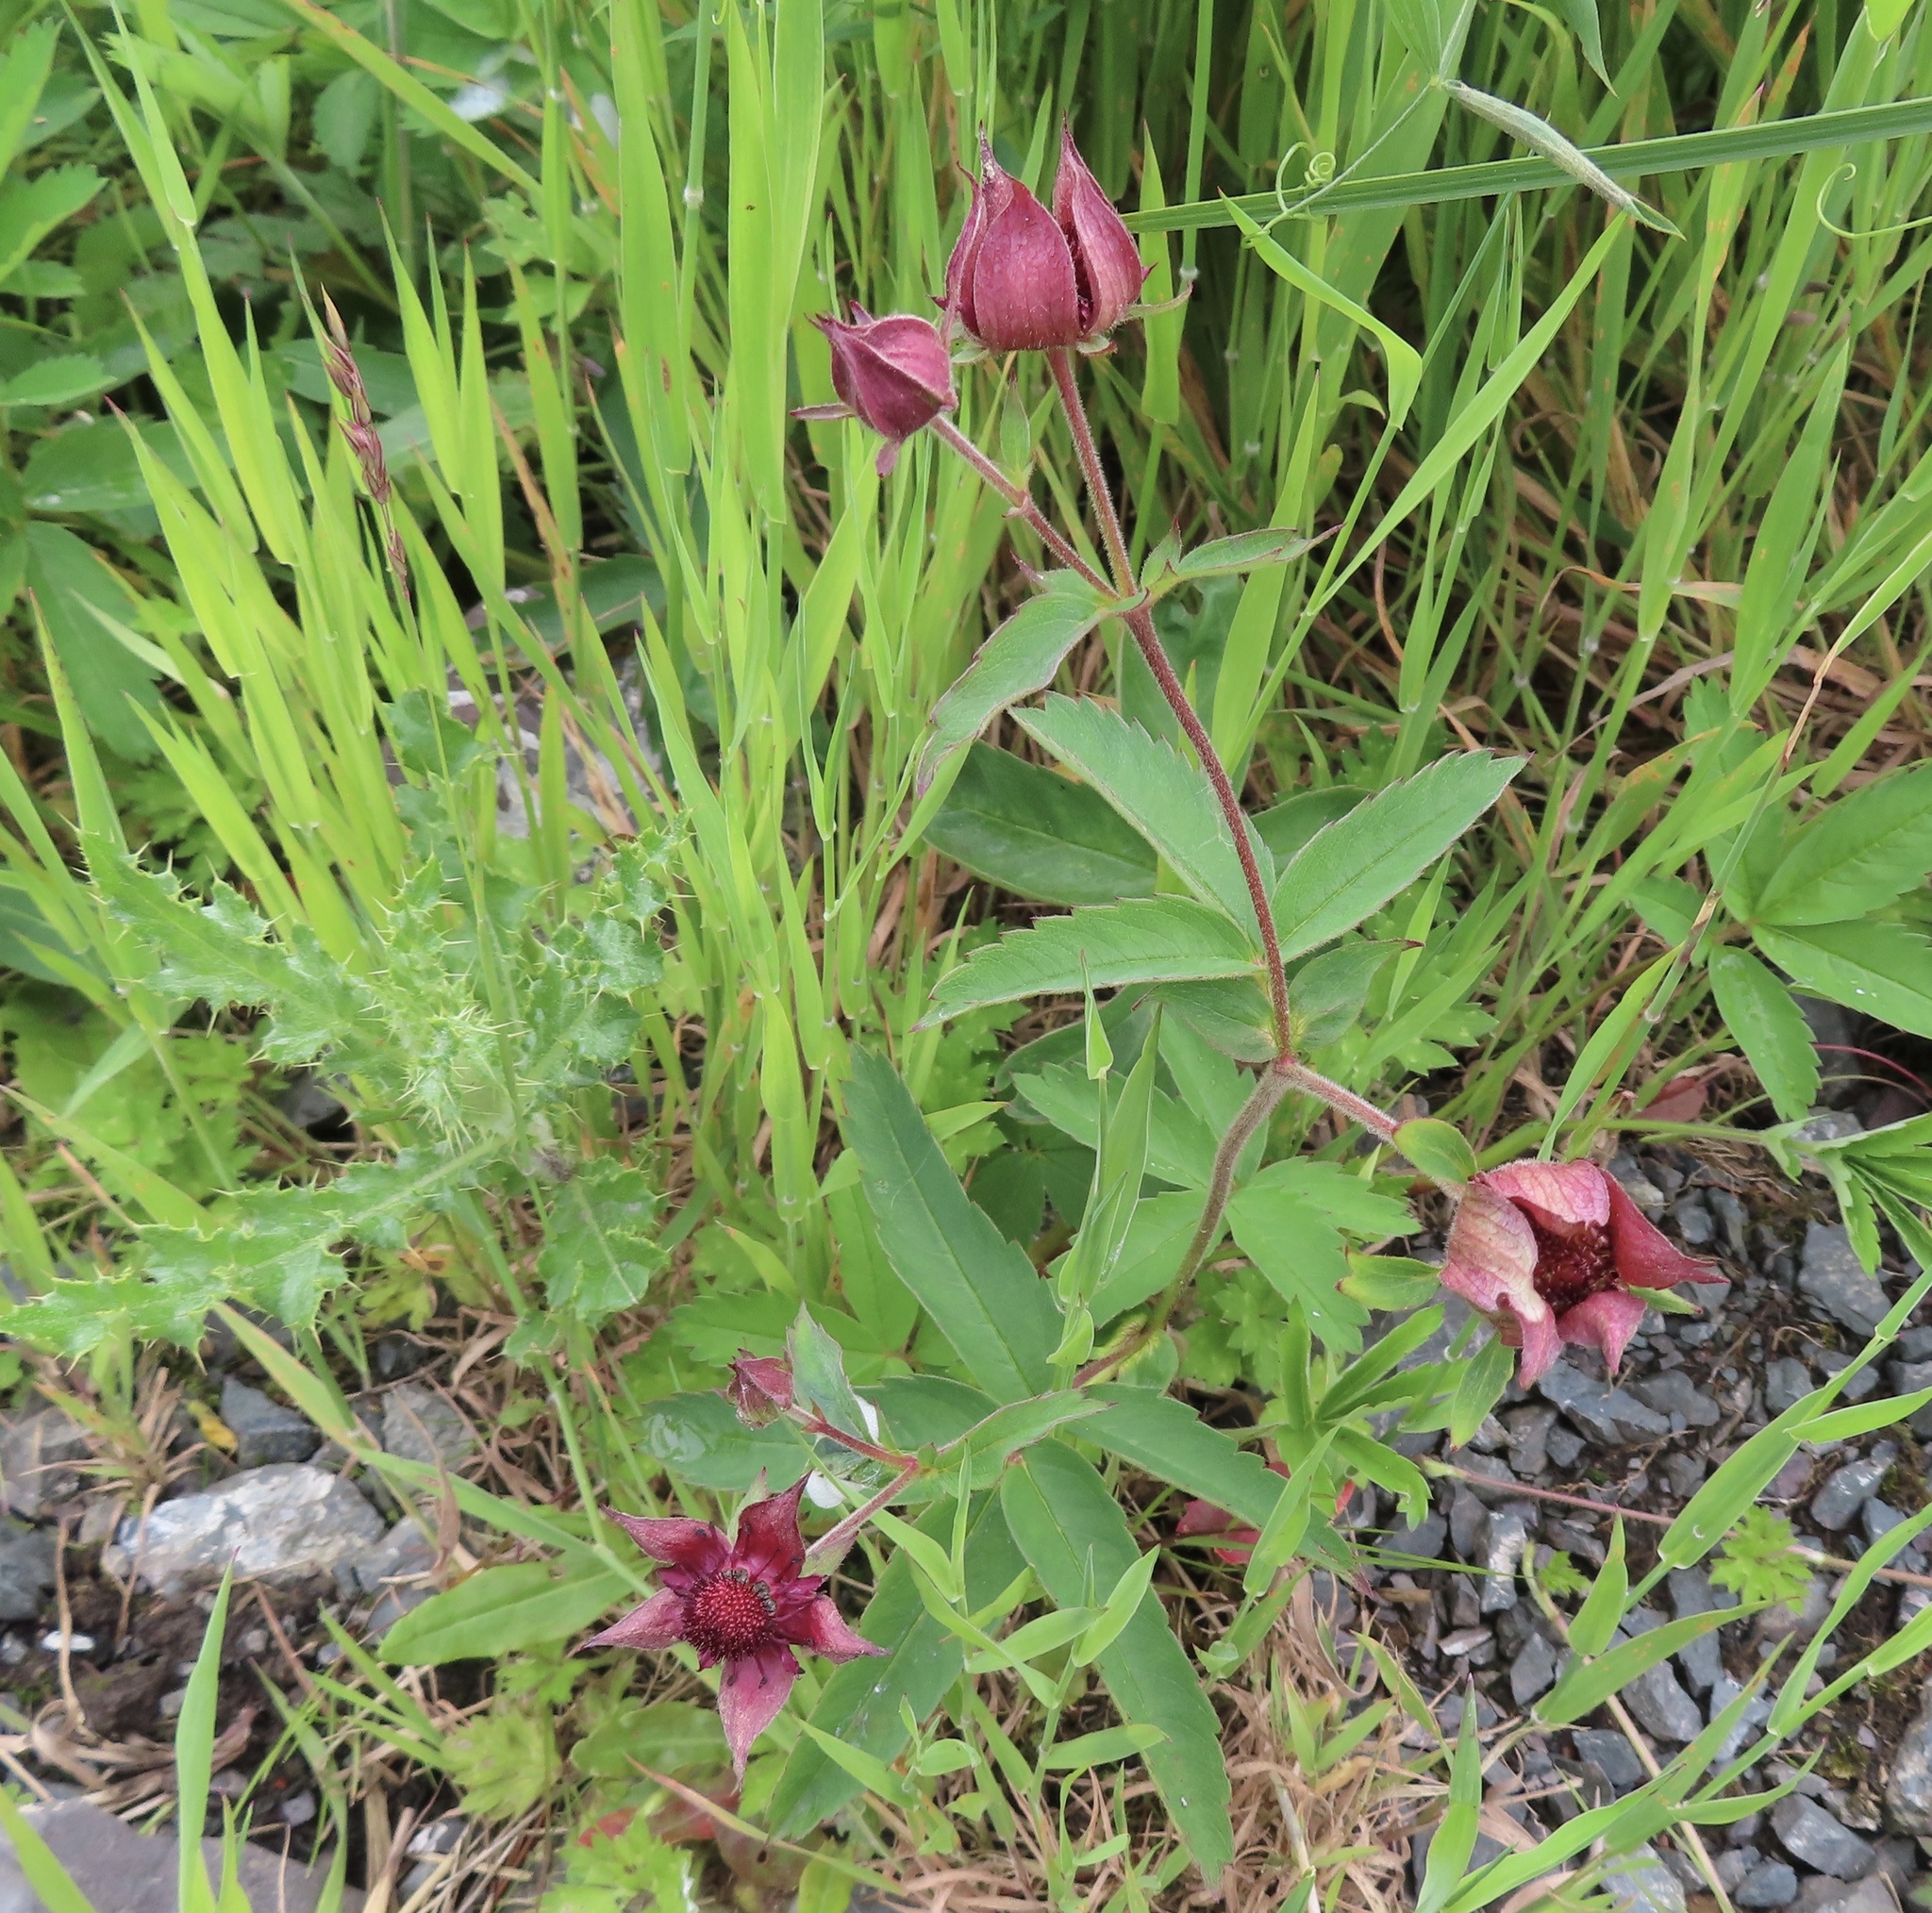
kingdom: Plantae
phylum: Tracheophyta
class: Magnoliopsida
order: Rosales
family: Rosaceae
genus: Comarum
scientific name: Comarum palustre
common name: Marsh cinquefoil
